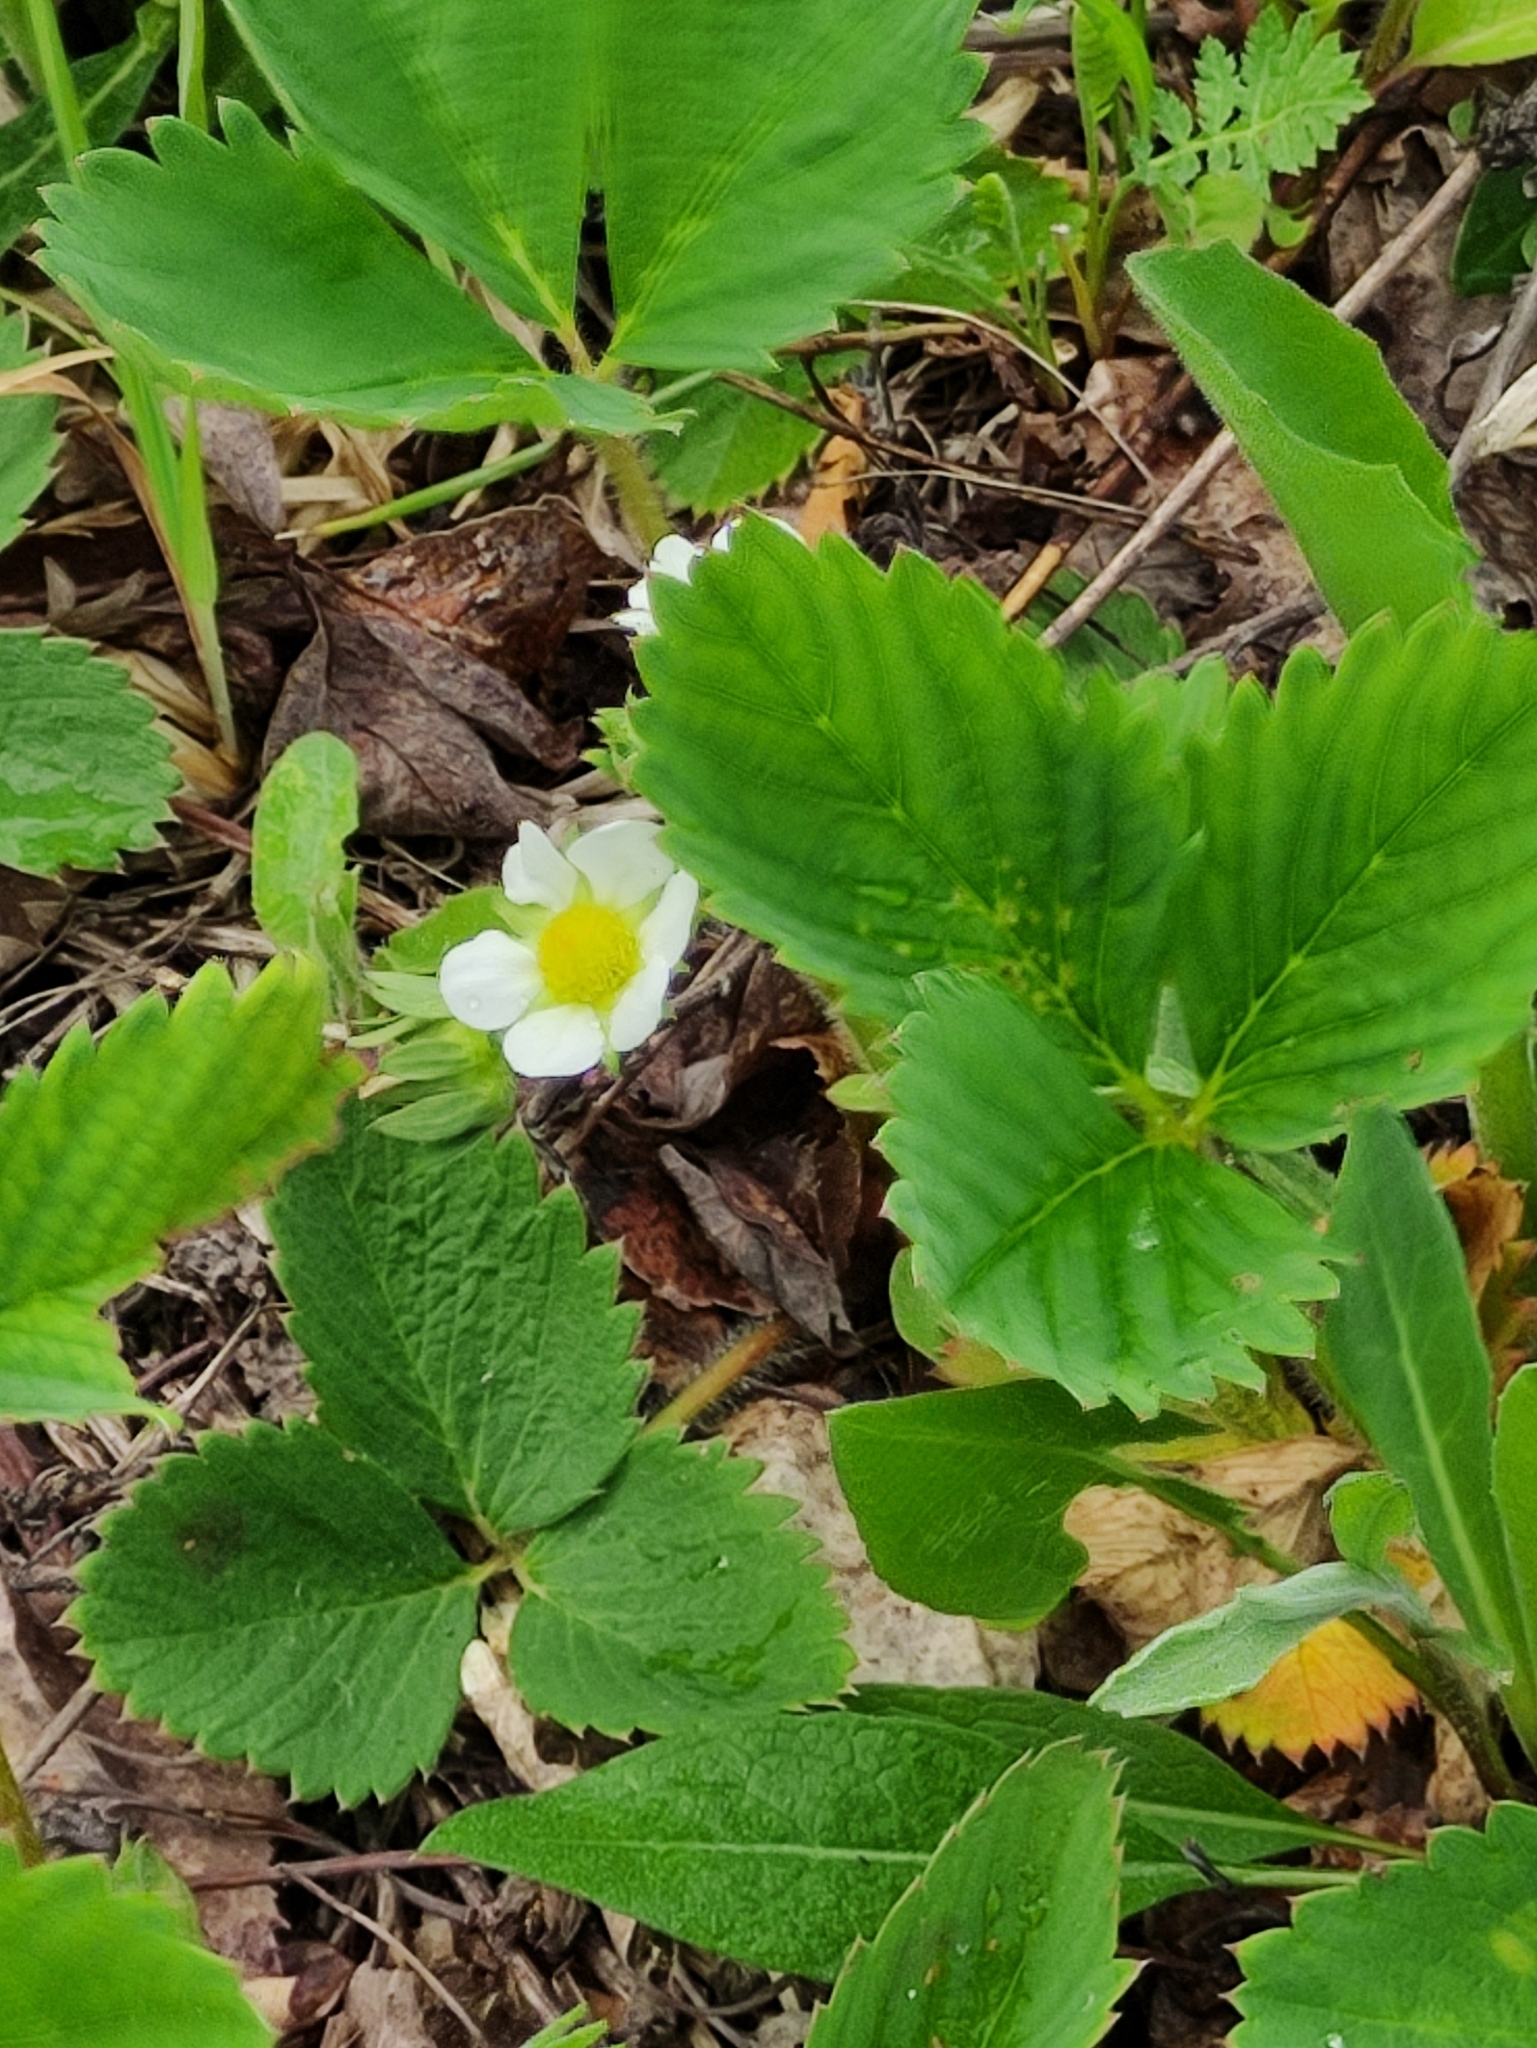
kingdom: Plantae
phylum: Tracheophyta
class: Magnoliopsida
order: Rosales
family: Rosaceae
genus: Fragaria
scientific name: Fragaria ananassa
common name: Garden strawberry
